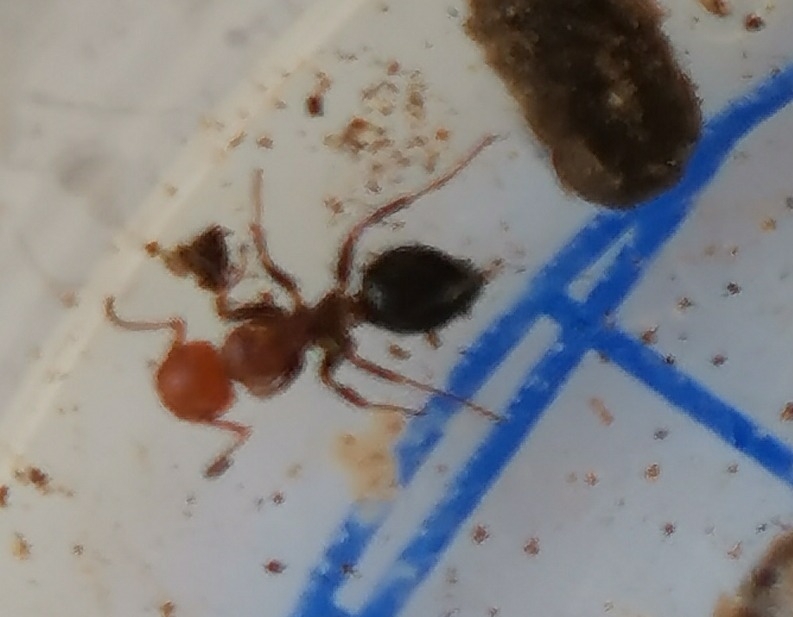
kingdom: Animalia
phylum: Arthropoda
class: Insecta
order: Hymenoptera
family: Formicidae
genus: Camponotus
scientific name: Camponotus lateralis
